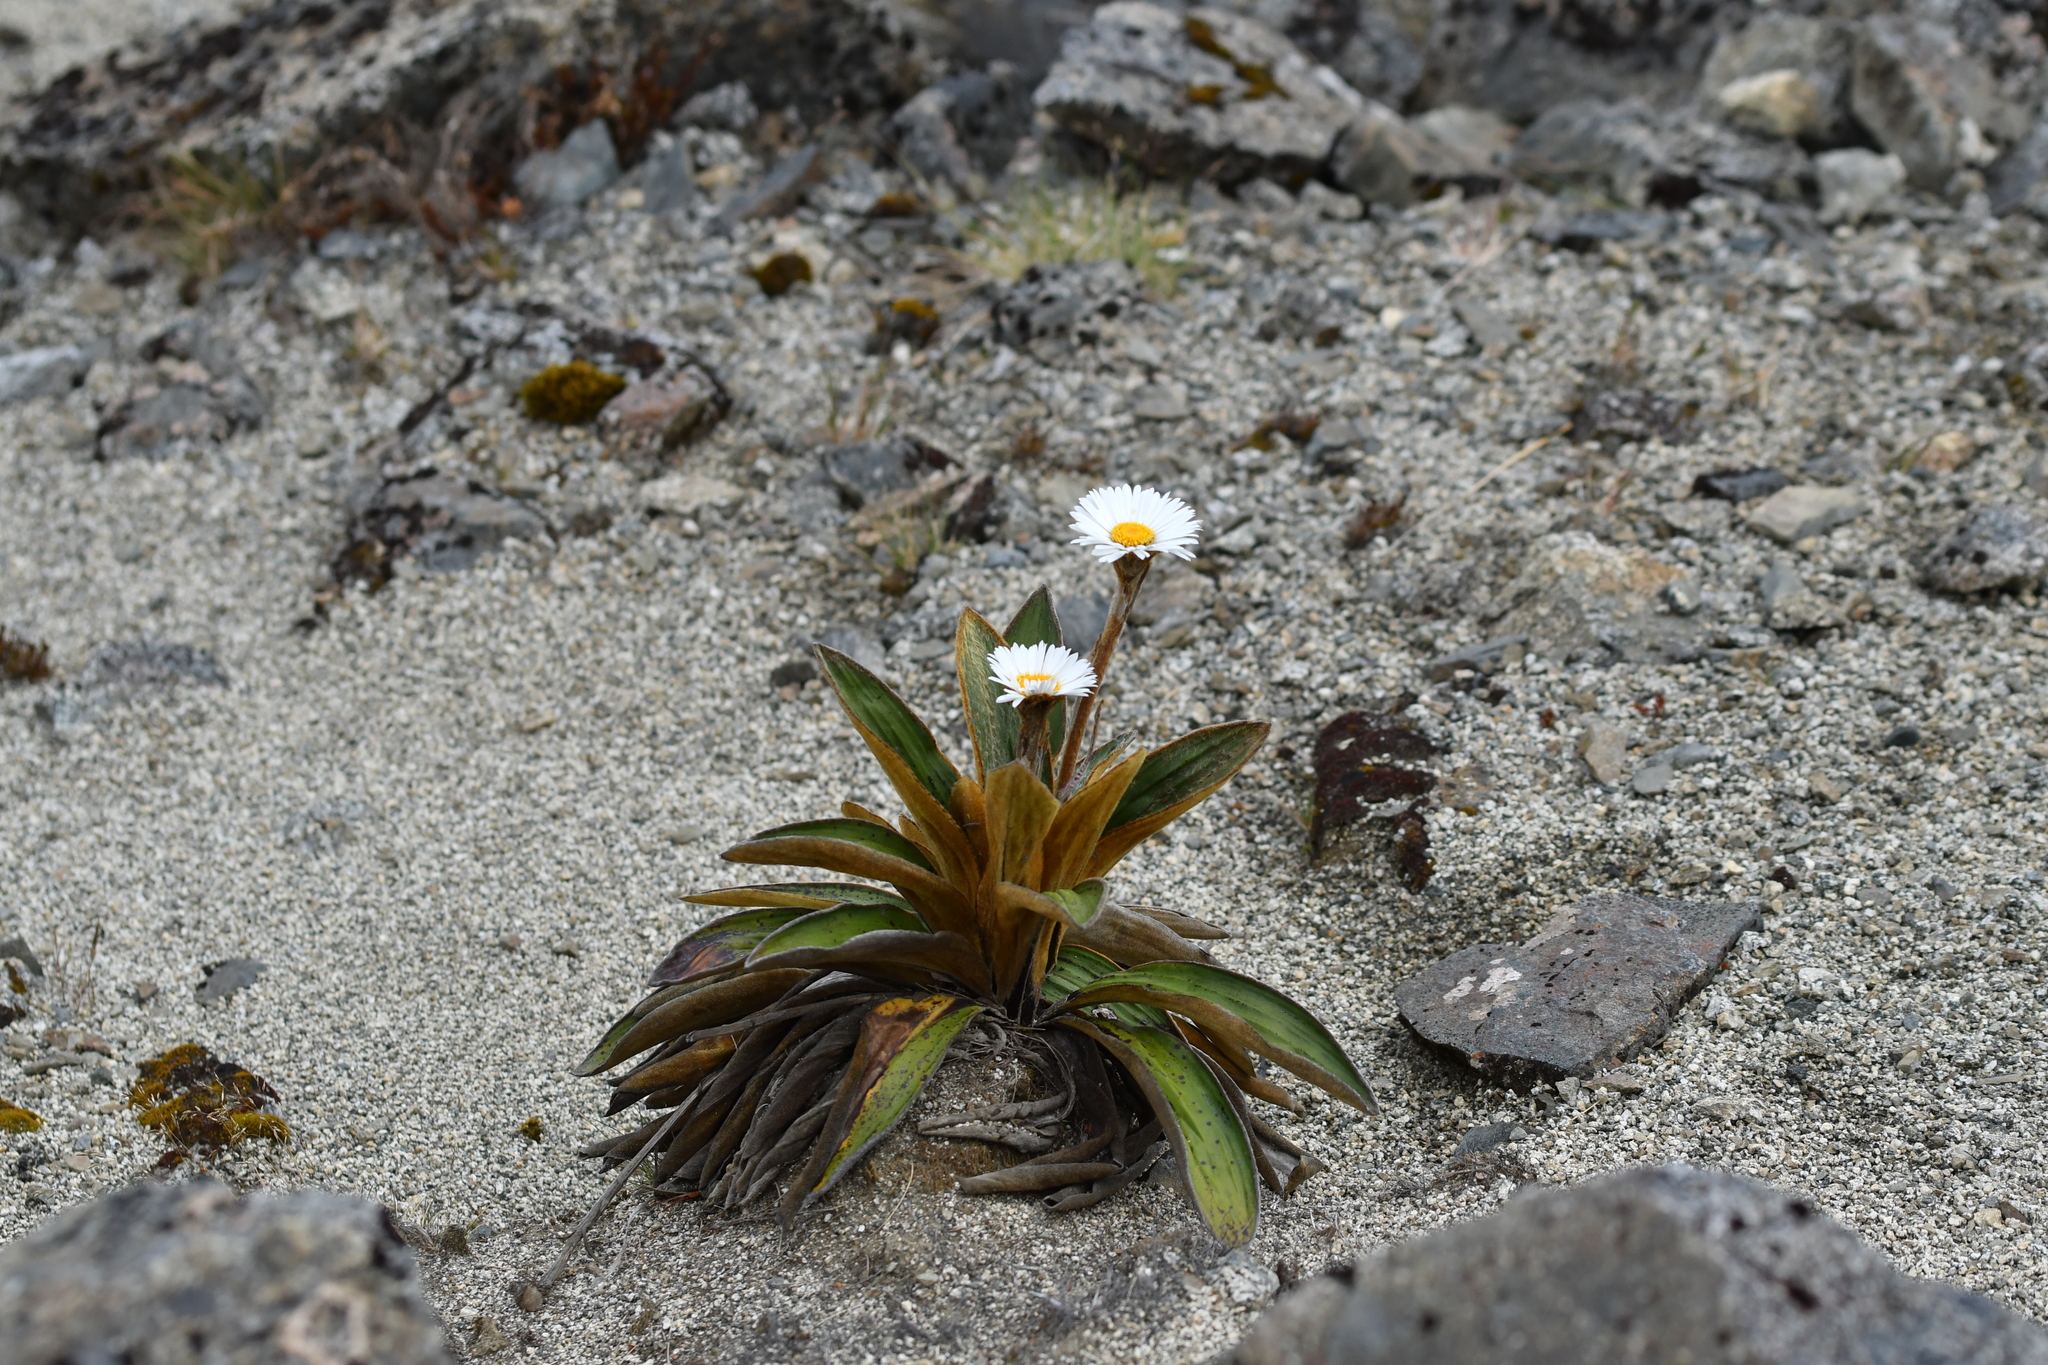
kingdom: Plantae
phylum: Tracheophyta
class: Magnoliopsida
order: Asterales
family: Asteraceae
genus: Celmisia
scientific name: Celmisia traversii
